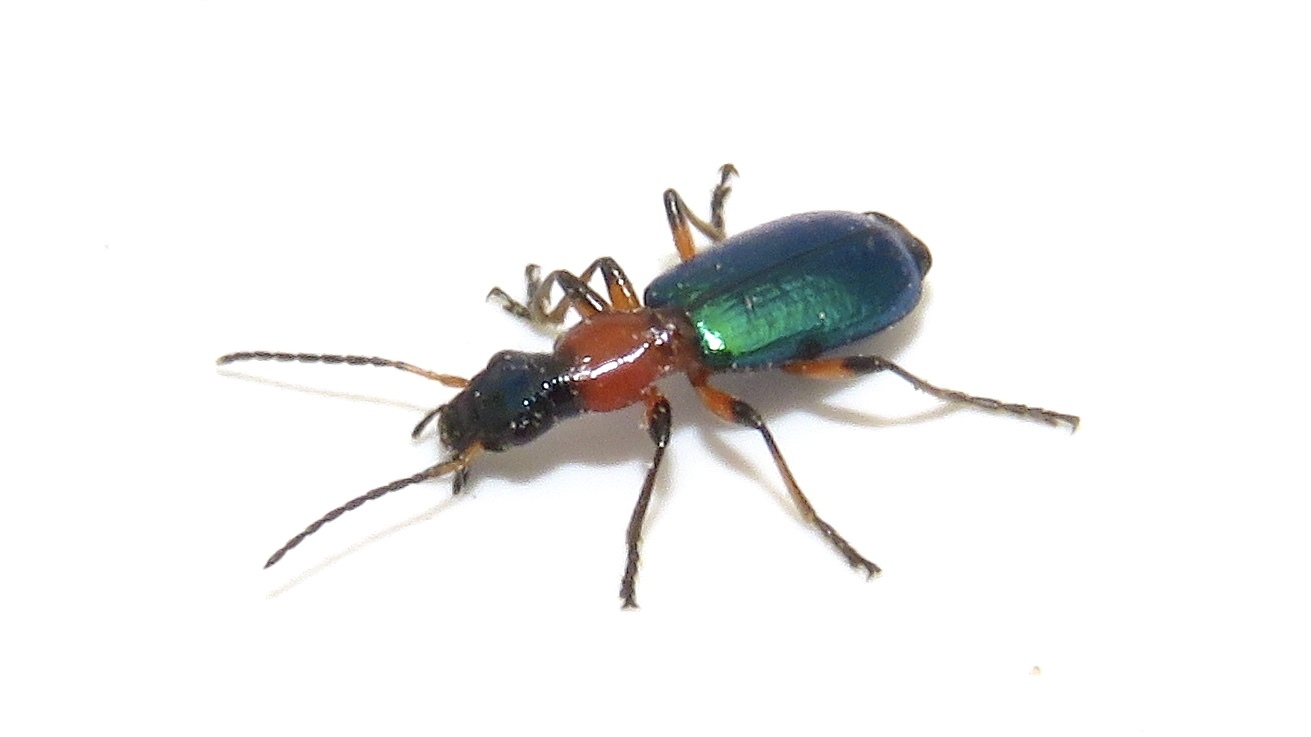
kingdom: Animalia
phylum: Arthropoda
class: Insecta
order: Coleoptera
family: Carabidae
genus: Calleida
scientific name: Calleida punctata
